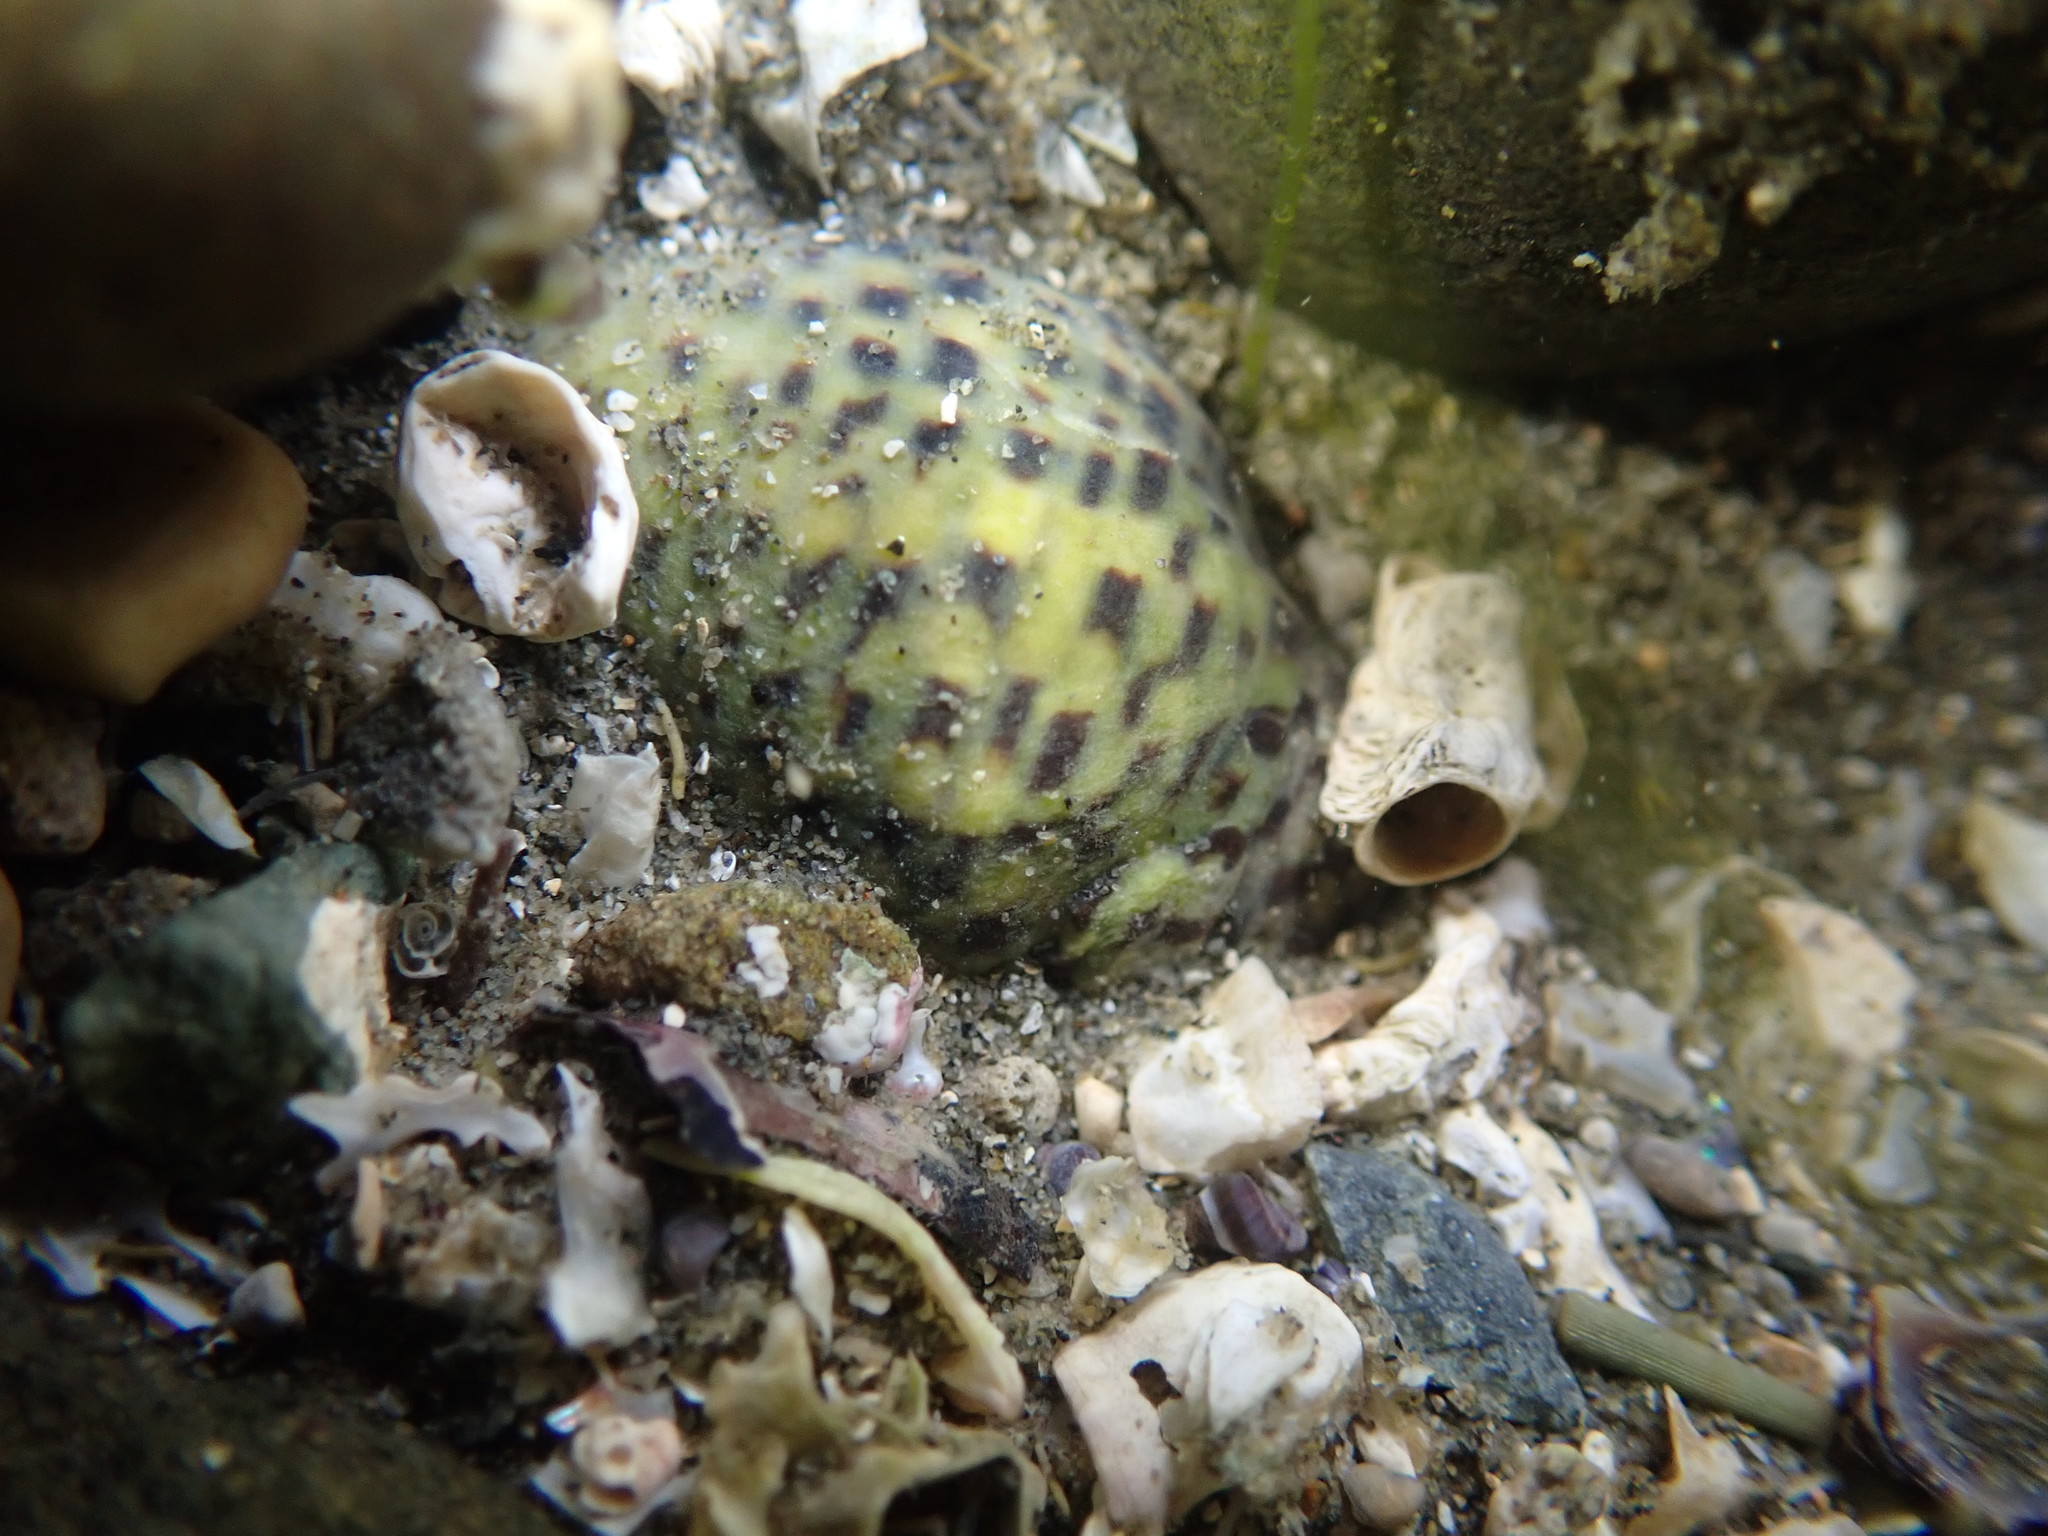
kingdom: Animalia
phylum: Mollusca
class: Gastropoda
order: Neogastropoda
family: Cominellidae
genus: Cominella
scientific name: Cominella maculosa
